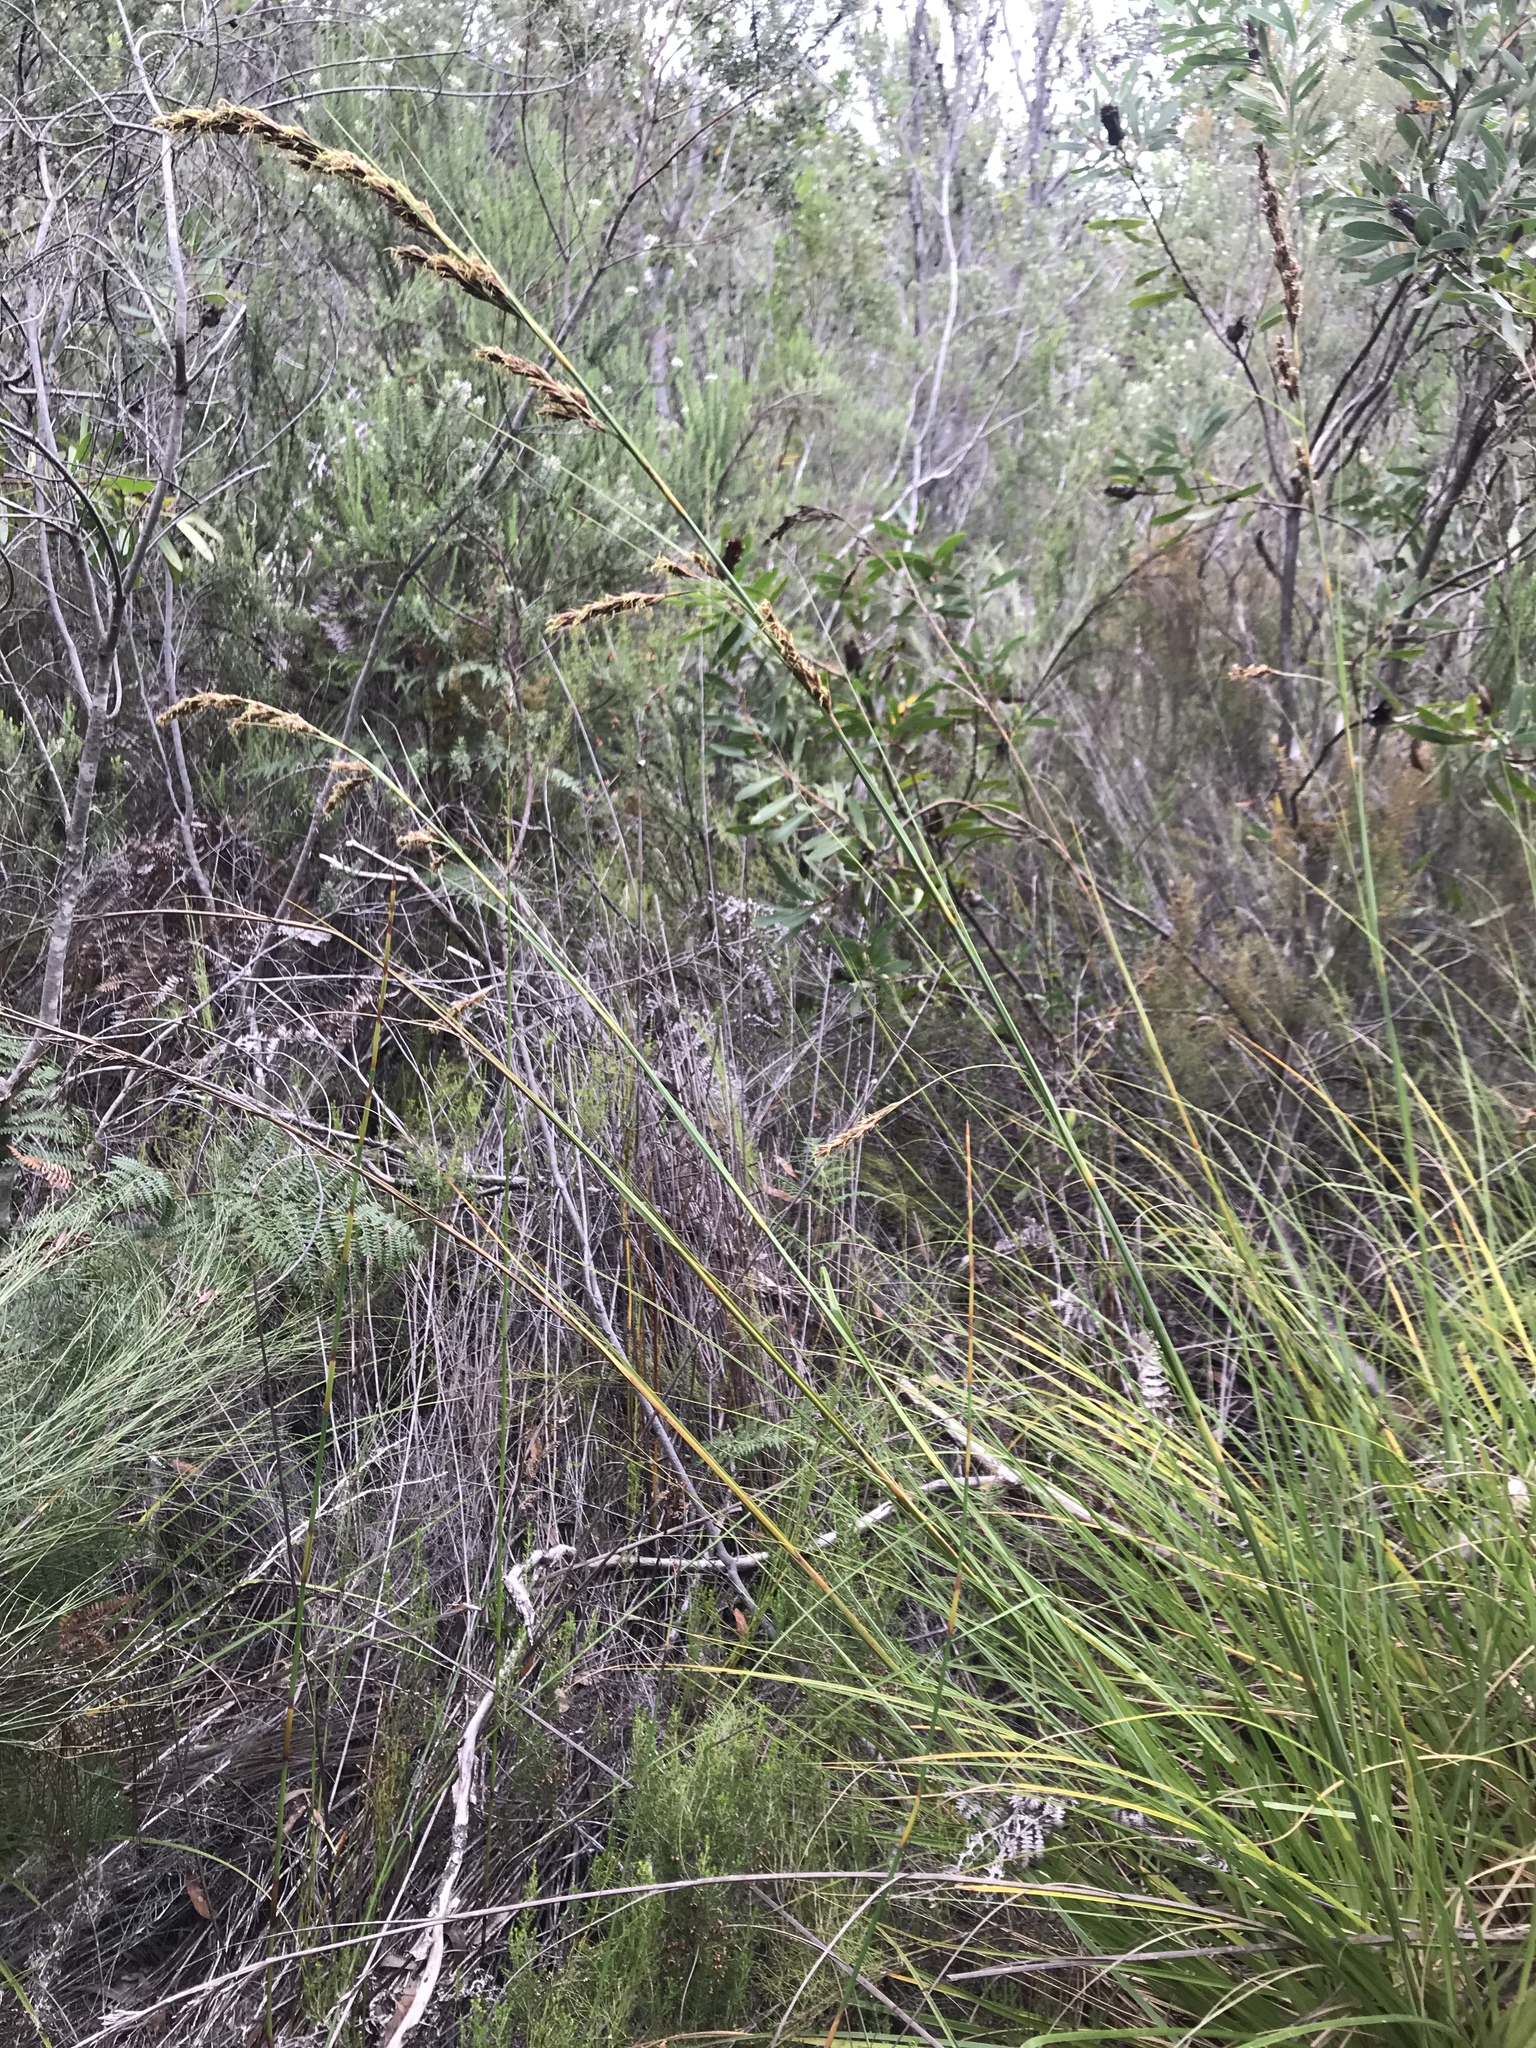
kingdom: Plantae
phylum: Tracheophyta
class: Liliopsida
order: Poales
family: Cyperaceae
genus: Tetraria
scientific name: Tetraria secans
